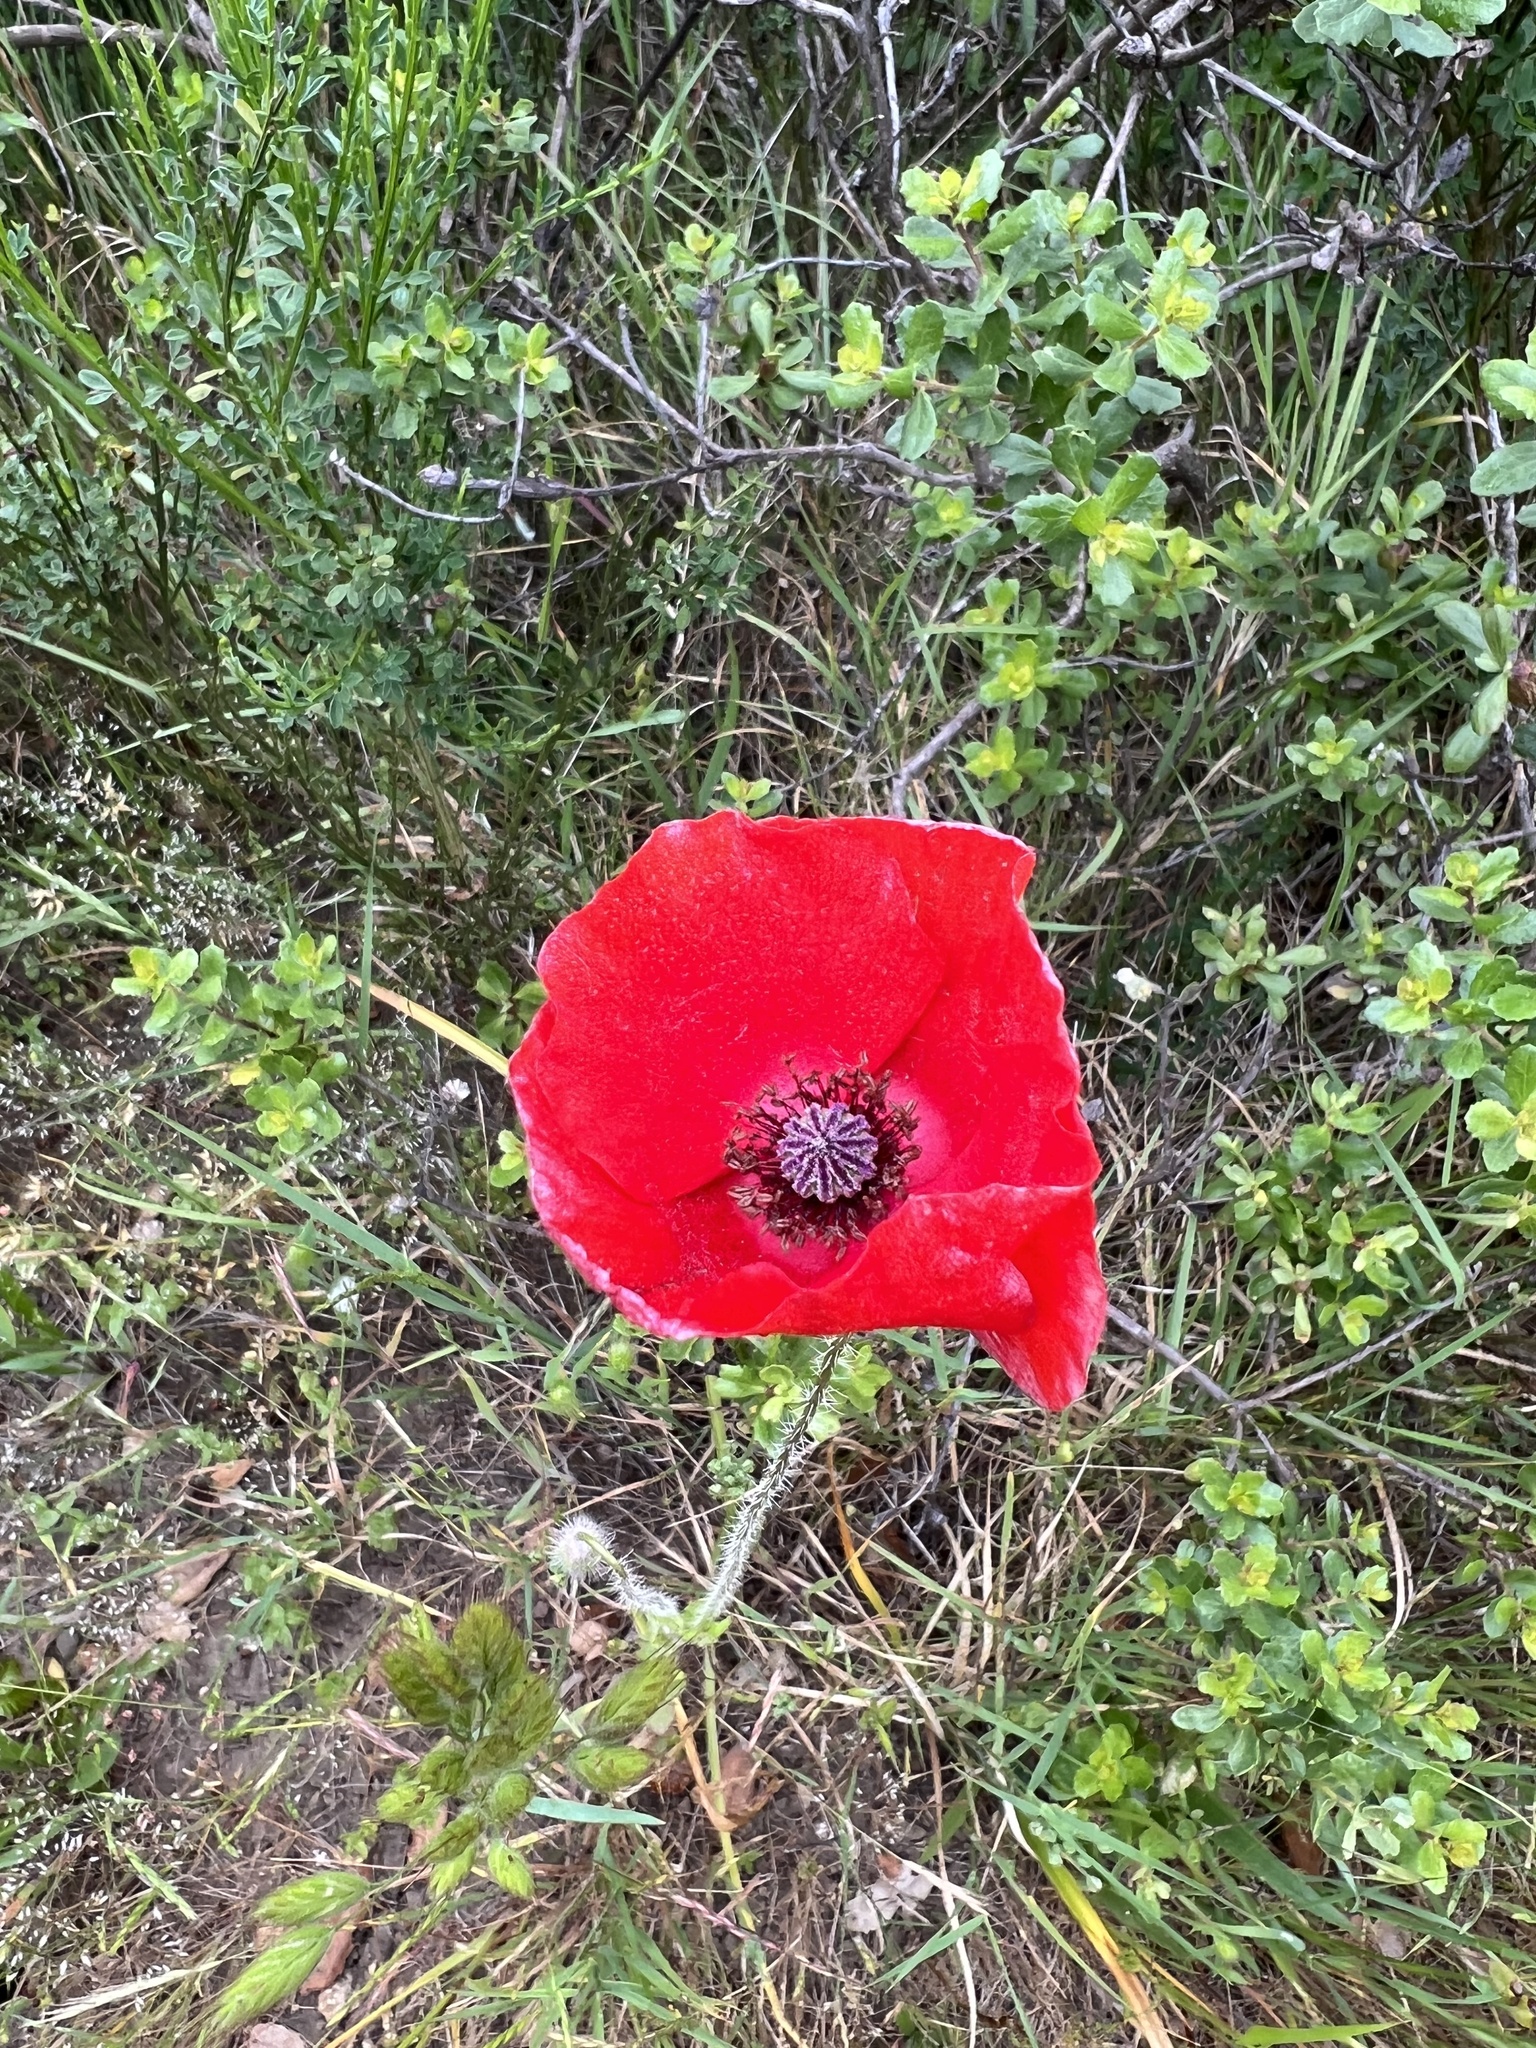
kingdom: Plantae
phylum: Tracheophyta
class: Magnoliopsida
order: Ranunculales
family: Papaveraceae
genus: Papaver
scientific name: Papaver rhoeas
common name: Corn poppy
